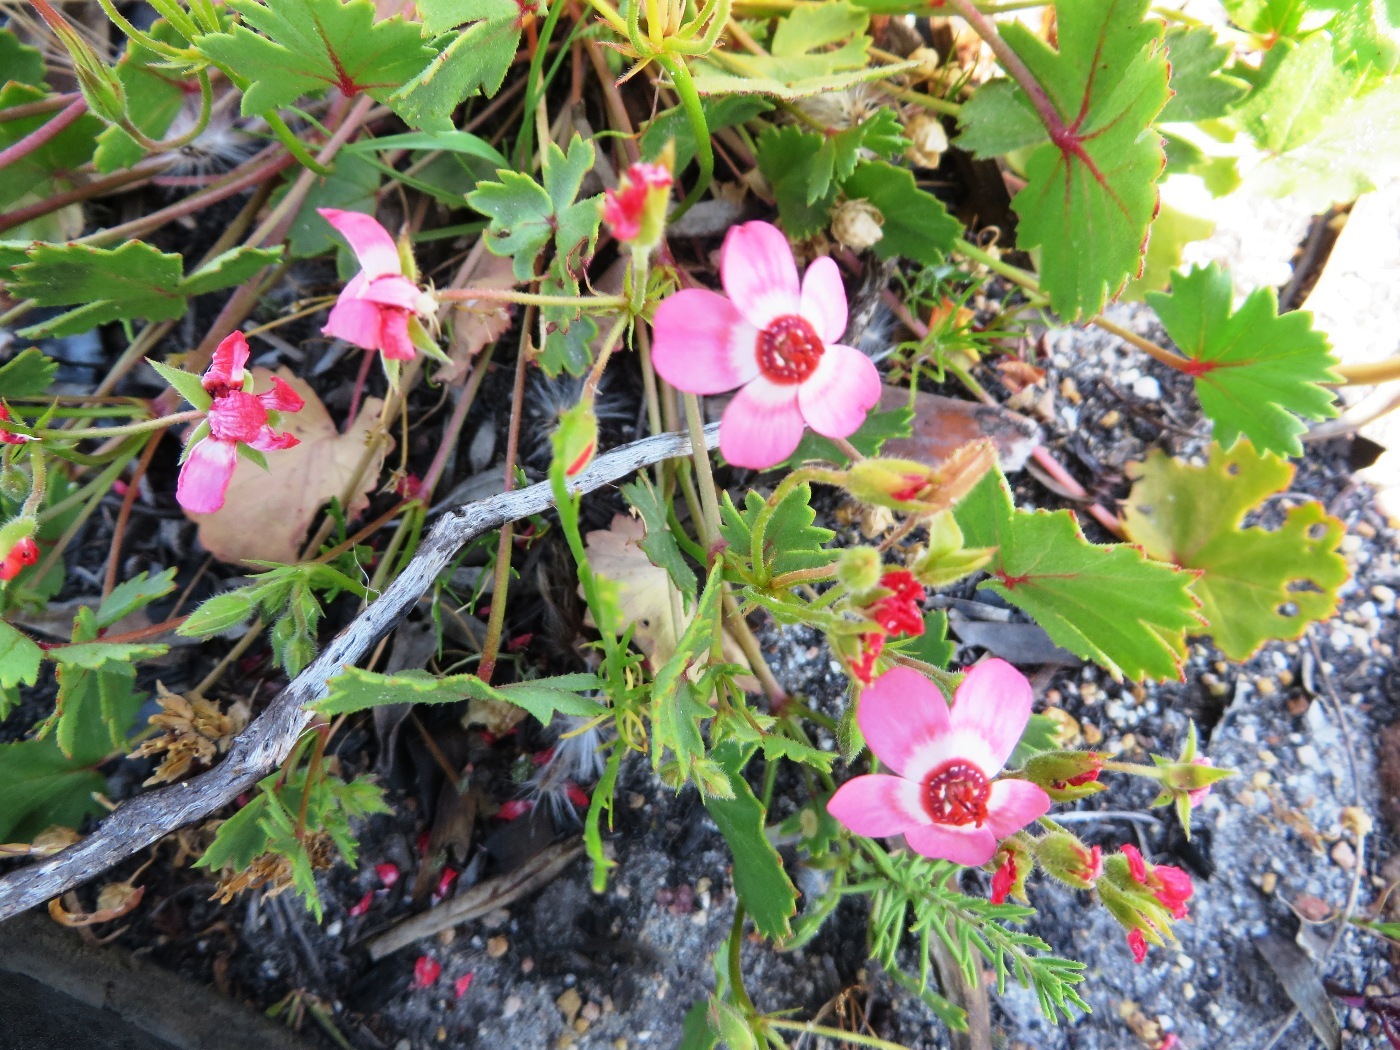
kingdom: Plantae
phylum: Tracheophyta
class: Magnoliopsida
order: Geraniales
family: Geraniaceae
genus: Pelargonium
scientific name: Pelargonium incarnatum
